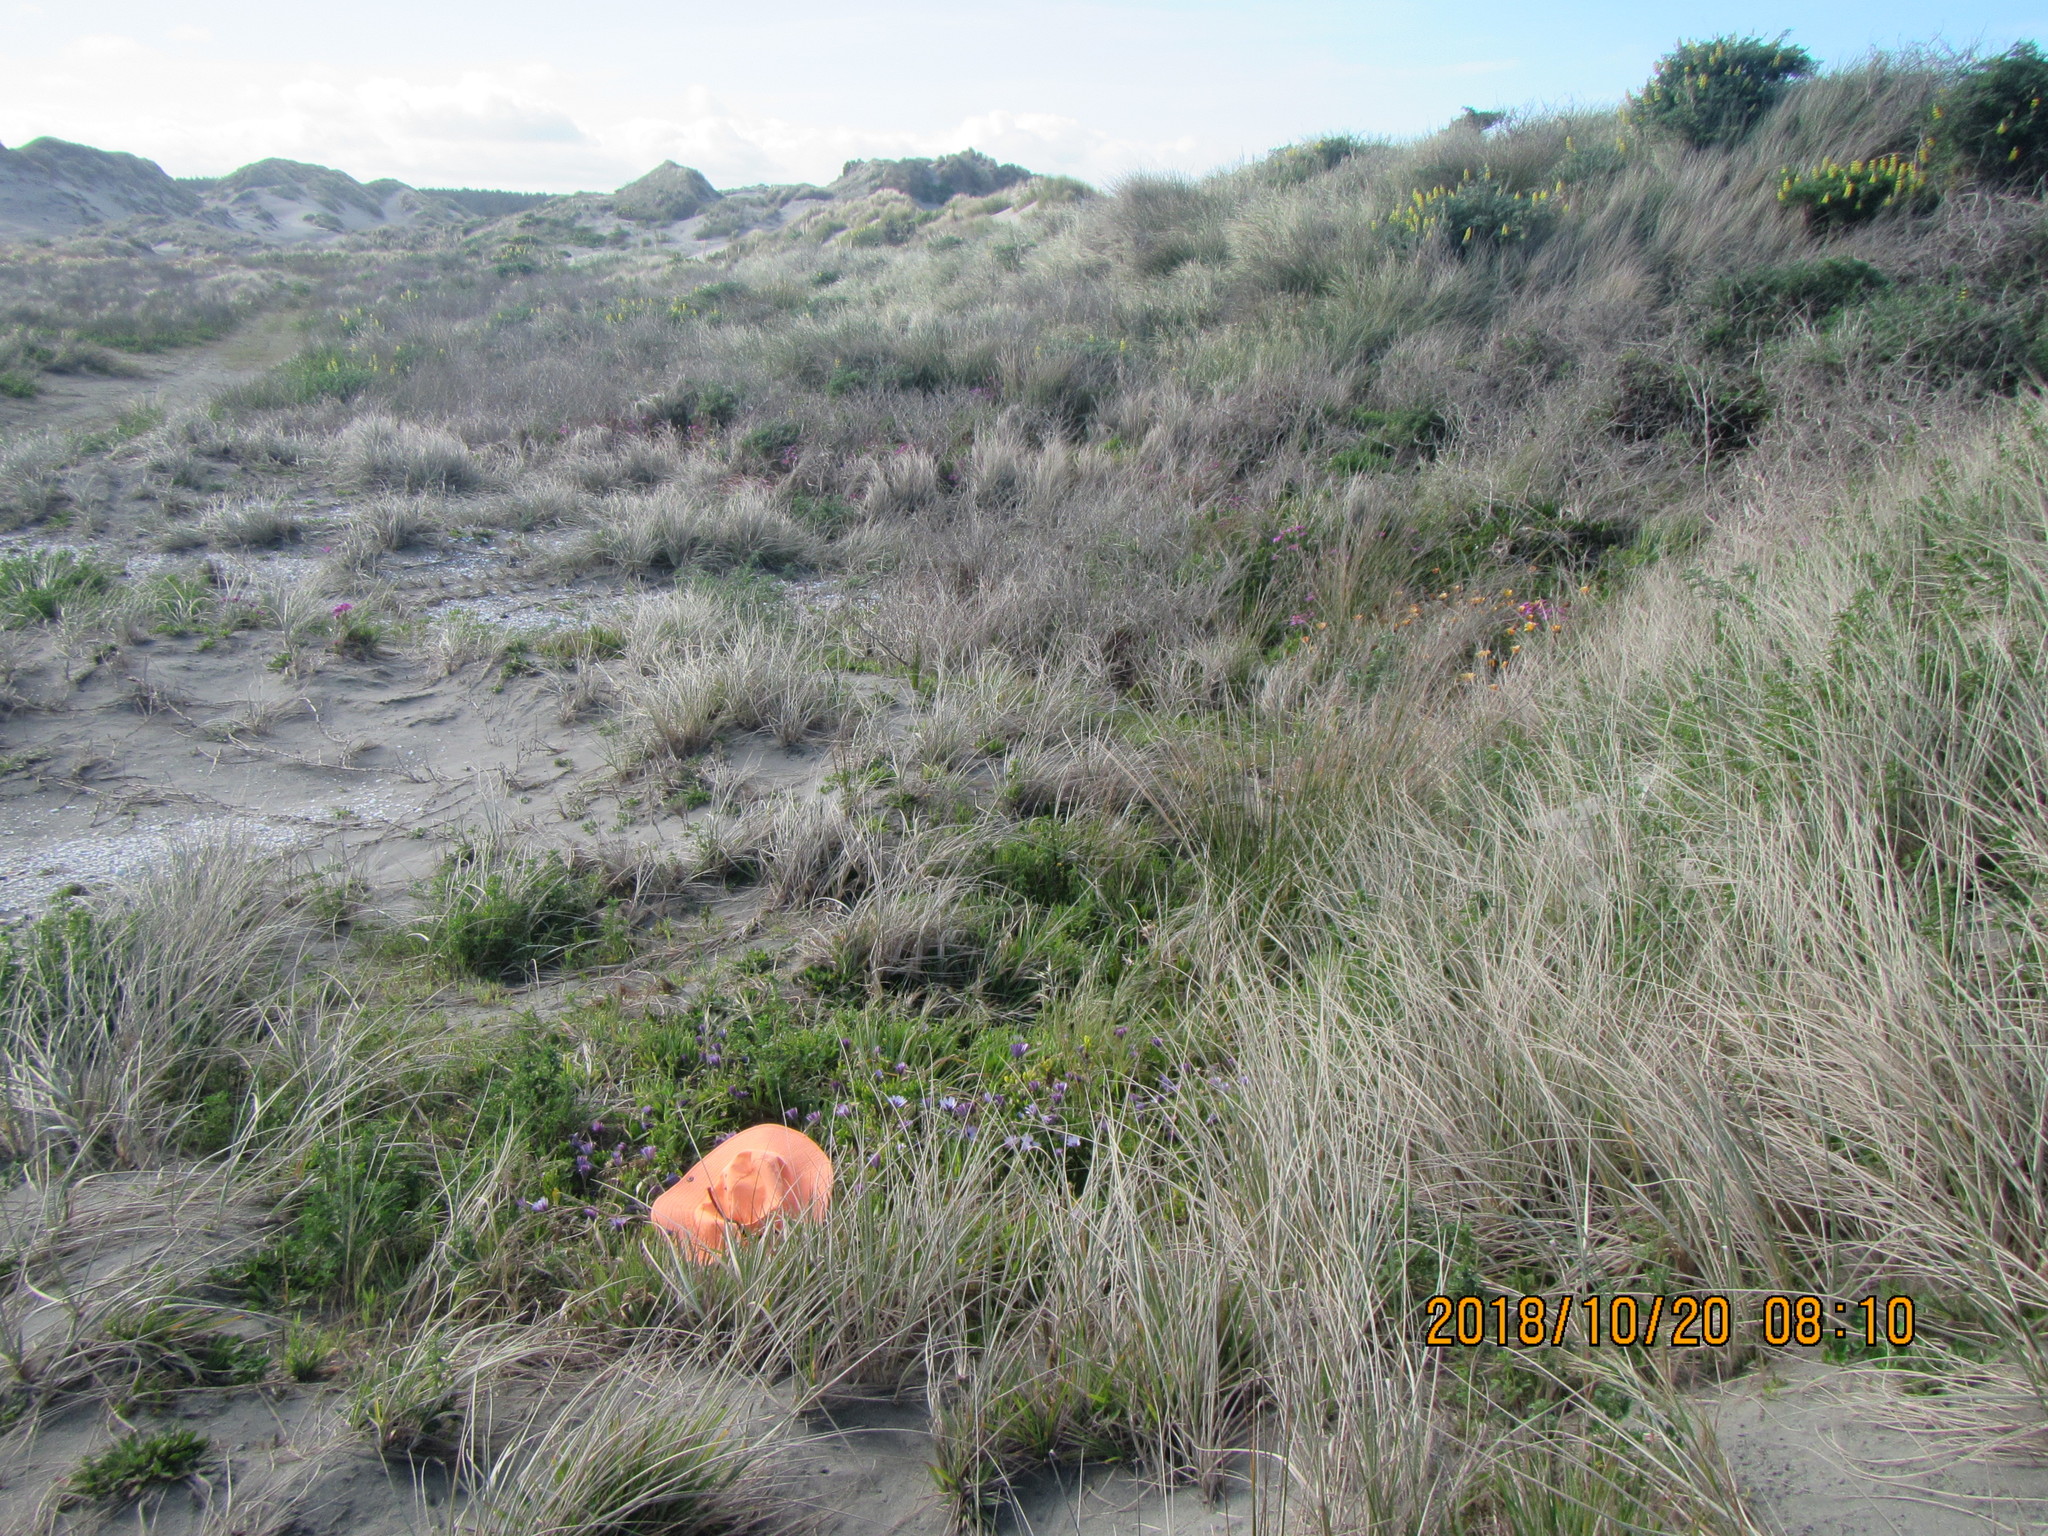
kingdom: Plantae
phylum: Tracheophyta
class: Magnoliopsida
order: Asterales
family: Asteraceae
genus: Dimorphotheca
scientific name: Dimorphotheca fruticosa
